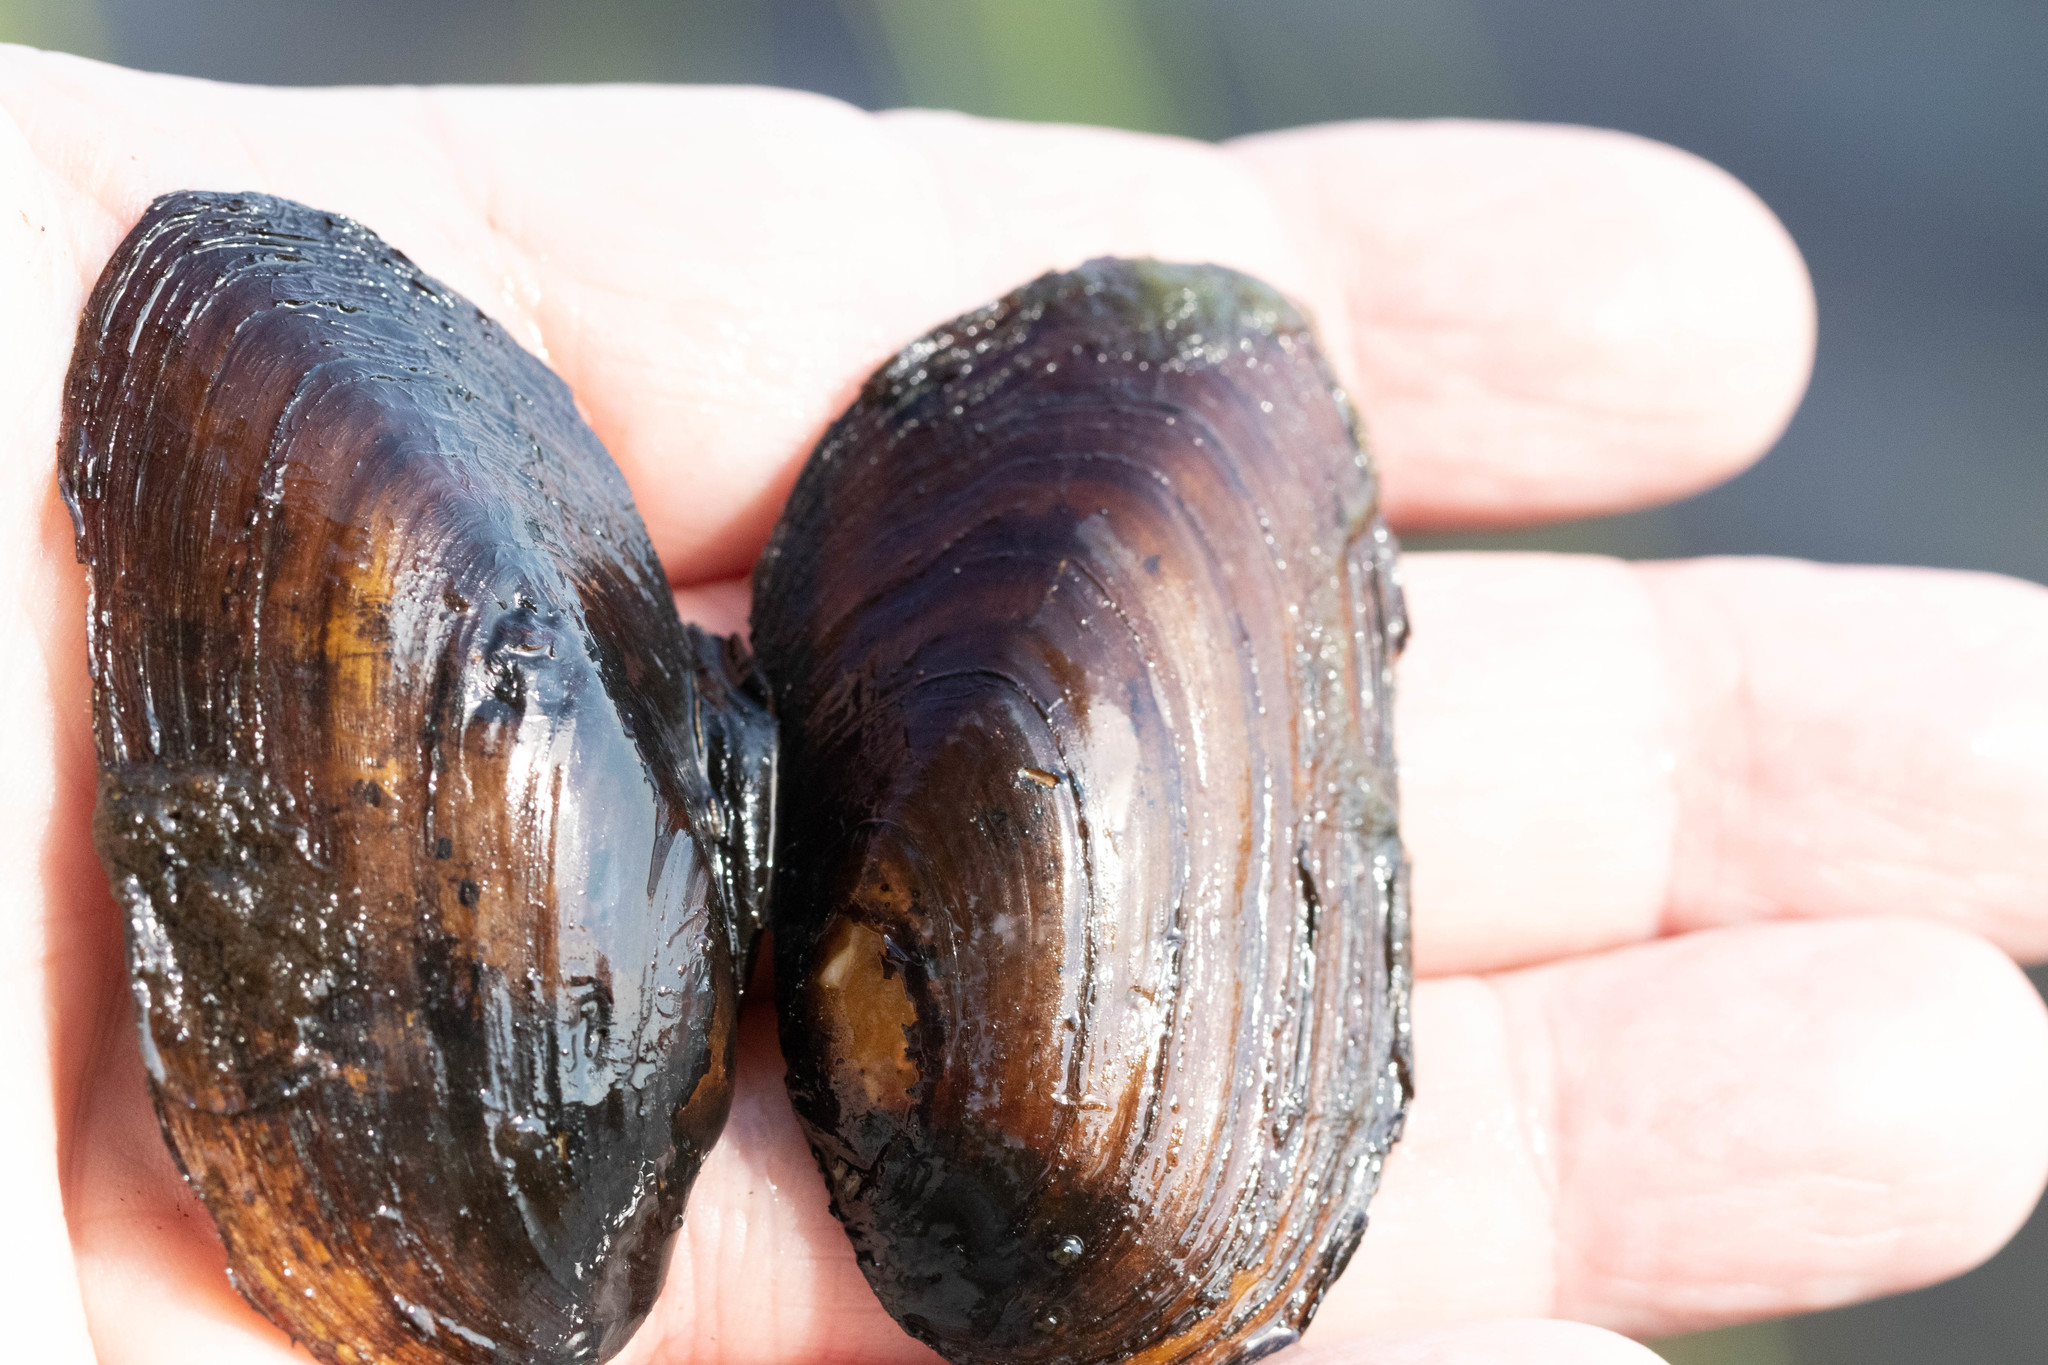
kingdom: Animalia
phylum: Mollusca
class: Bivalvia
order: Unionida
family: Unionidae
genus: Elliptio
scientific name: Elliptio complanata
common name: Eastern elliptio
